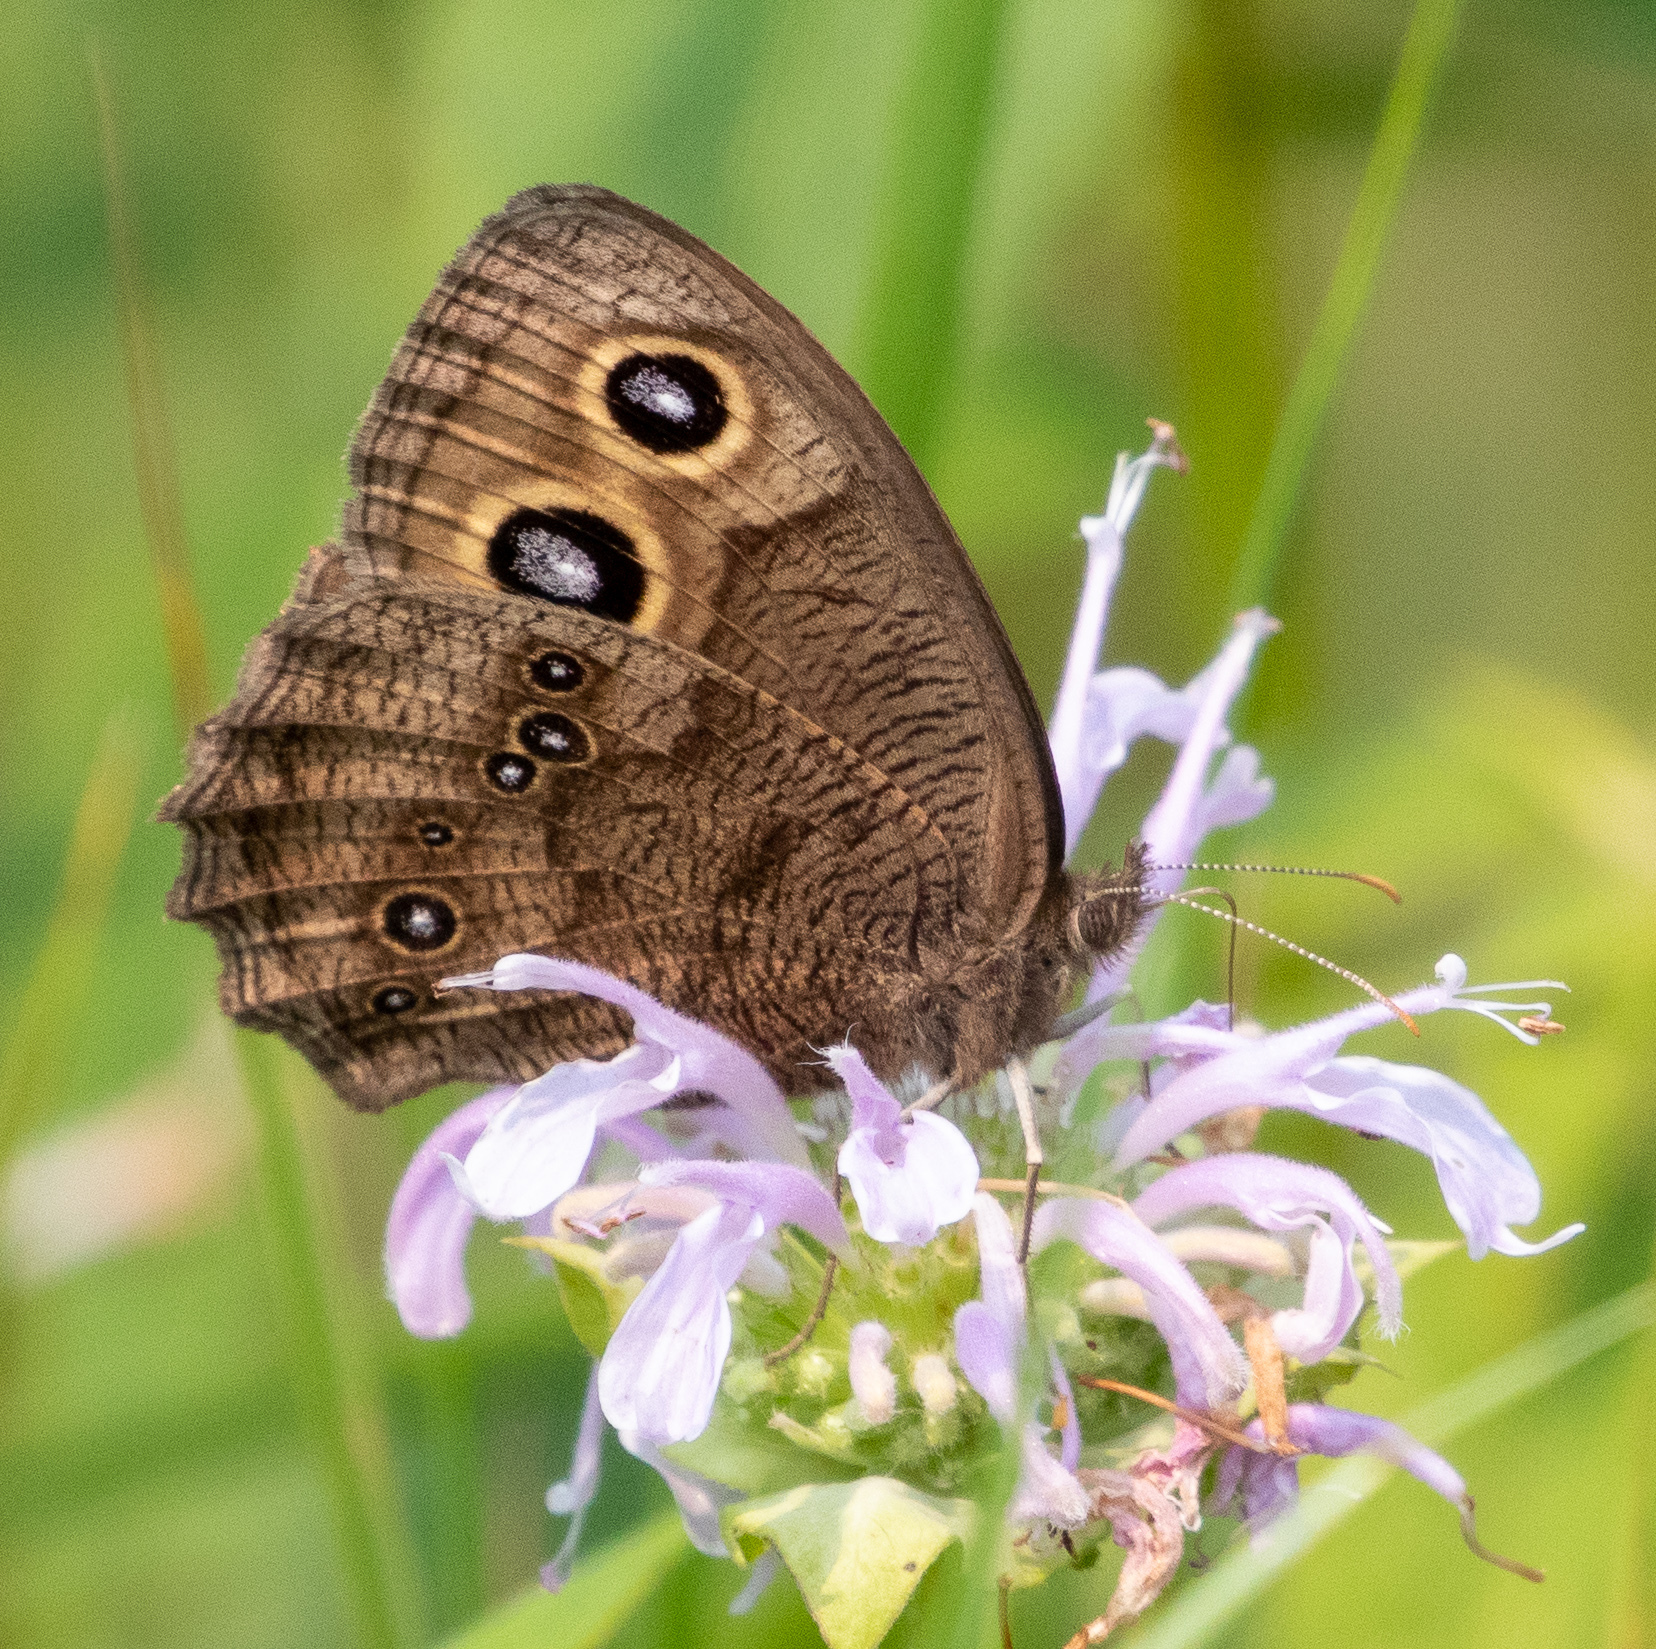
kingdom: Animalia
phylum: Arthropoda
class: Insecta
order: Lepidoptera
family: Nymphalidae
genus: Cercyonis
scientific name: Cercyonis pegala
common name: Common wood-nymph
